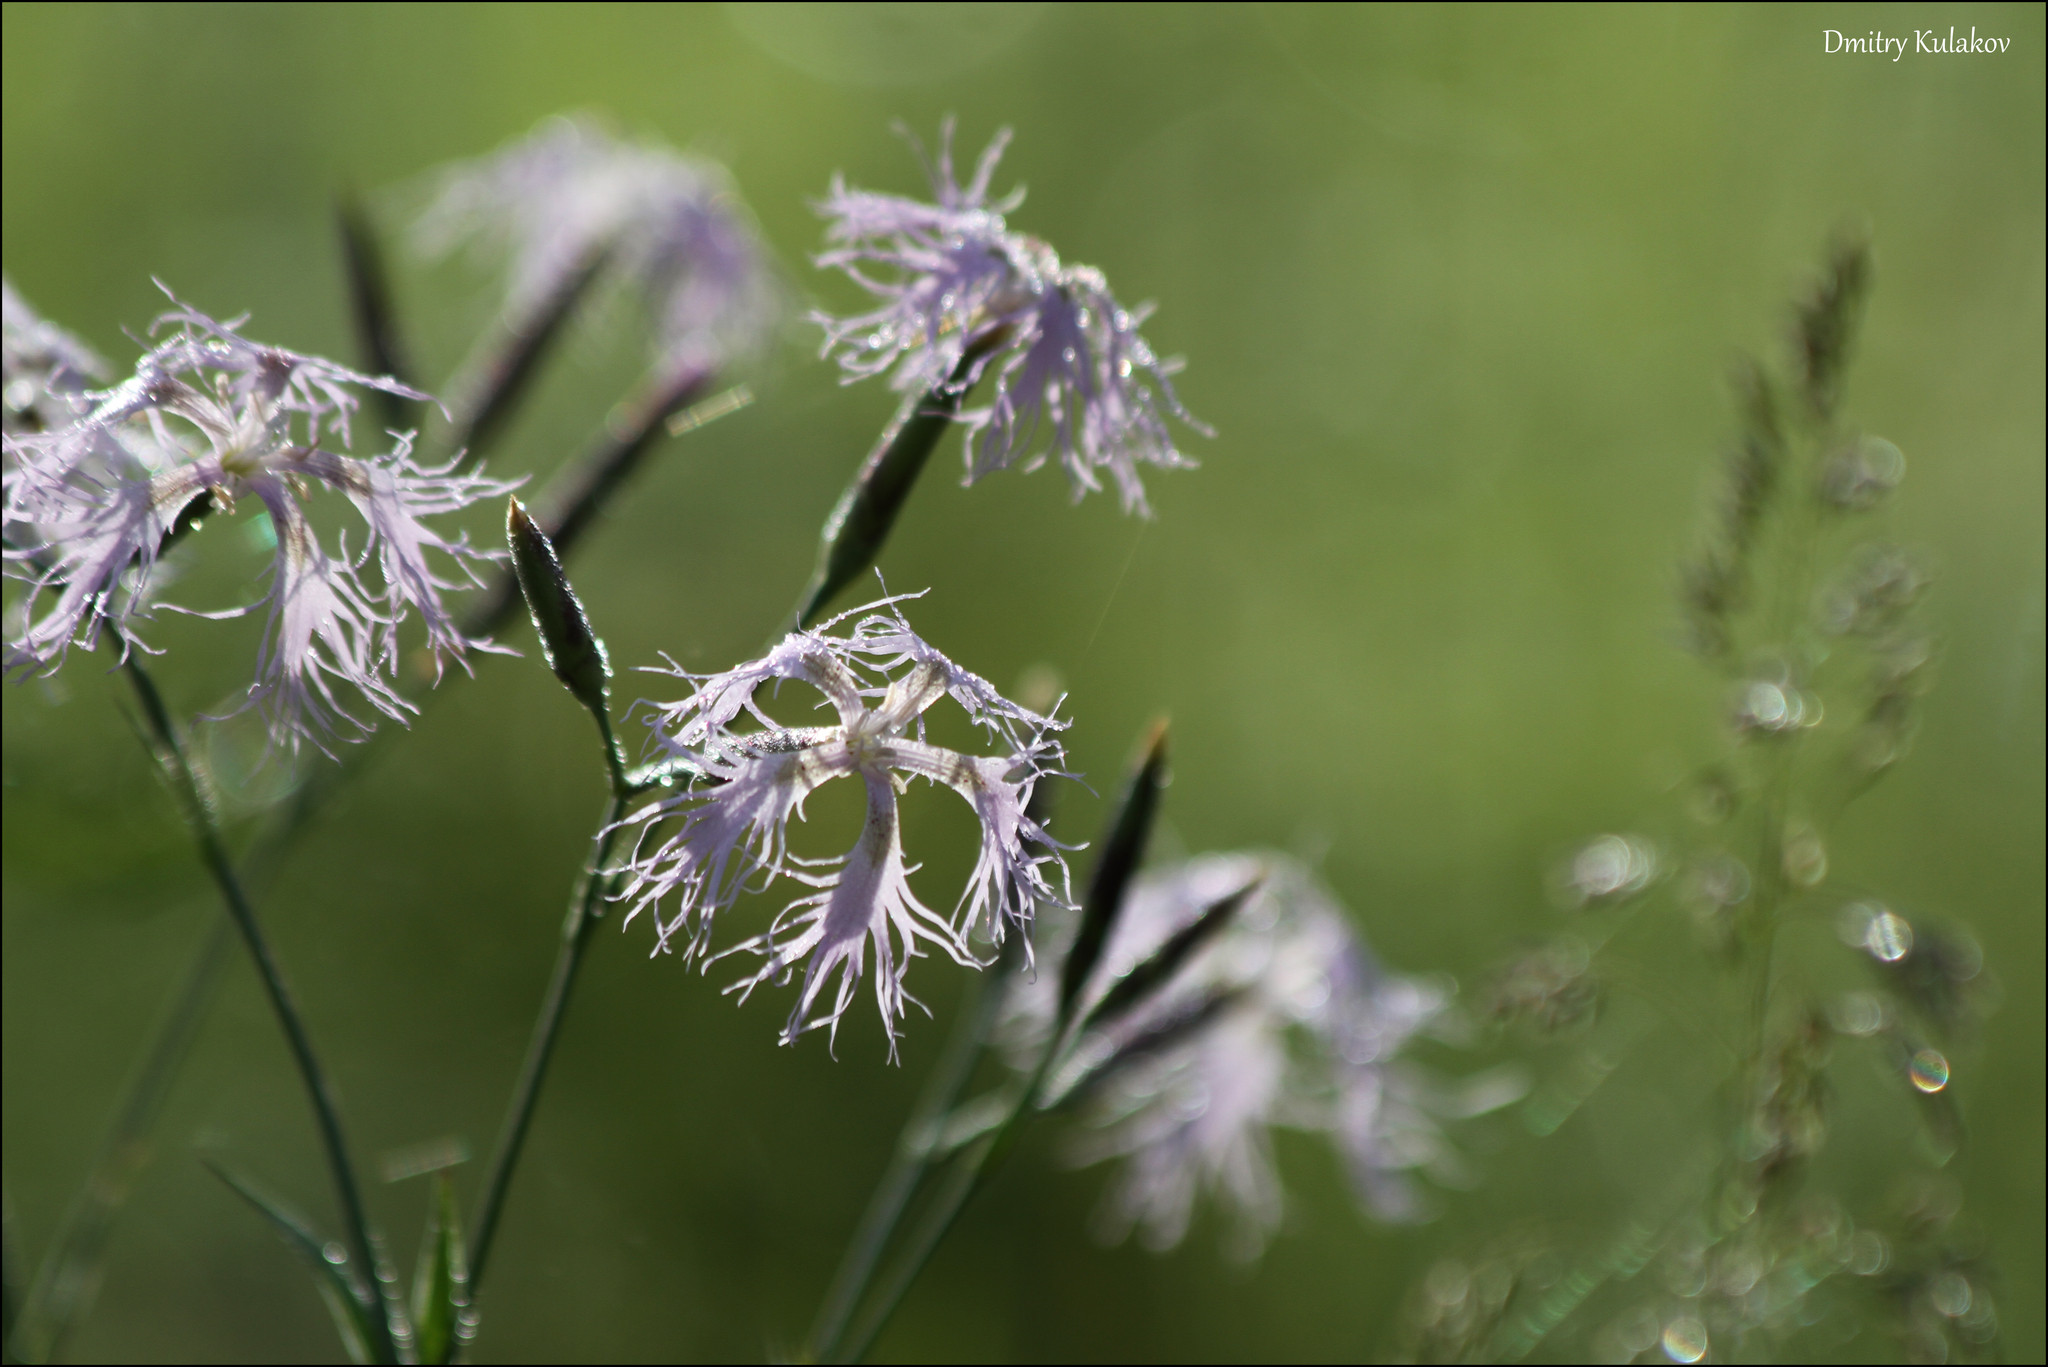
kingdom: Plantae
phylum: Tracheophyta
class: Magnoliopsida
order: Caryophyllales
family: Caryophyllaceae
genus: Dianthus
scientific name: Dianthus superbus
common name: Fringed pink
